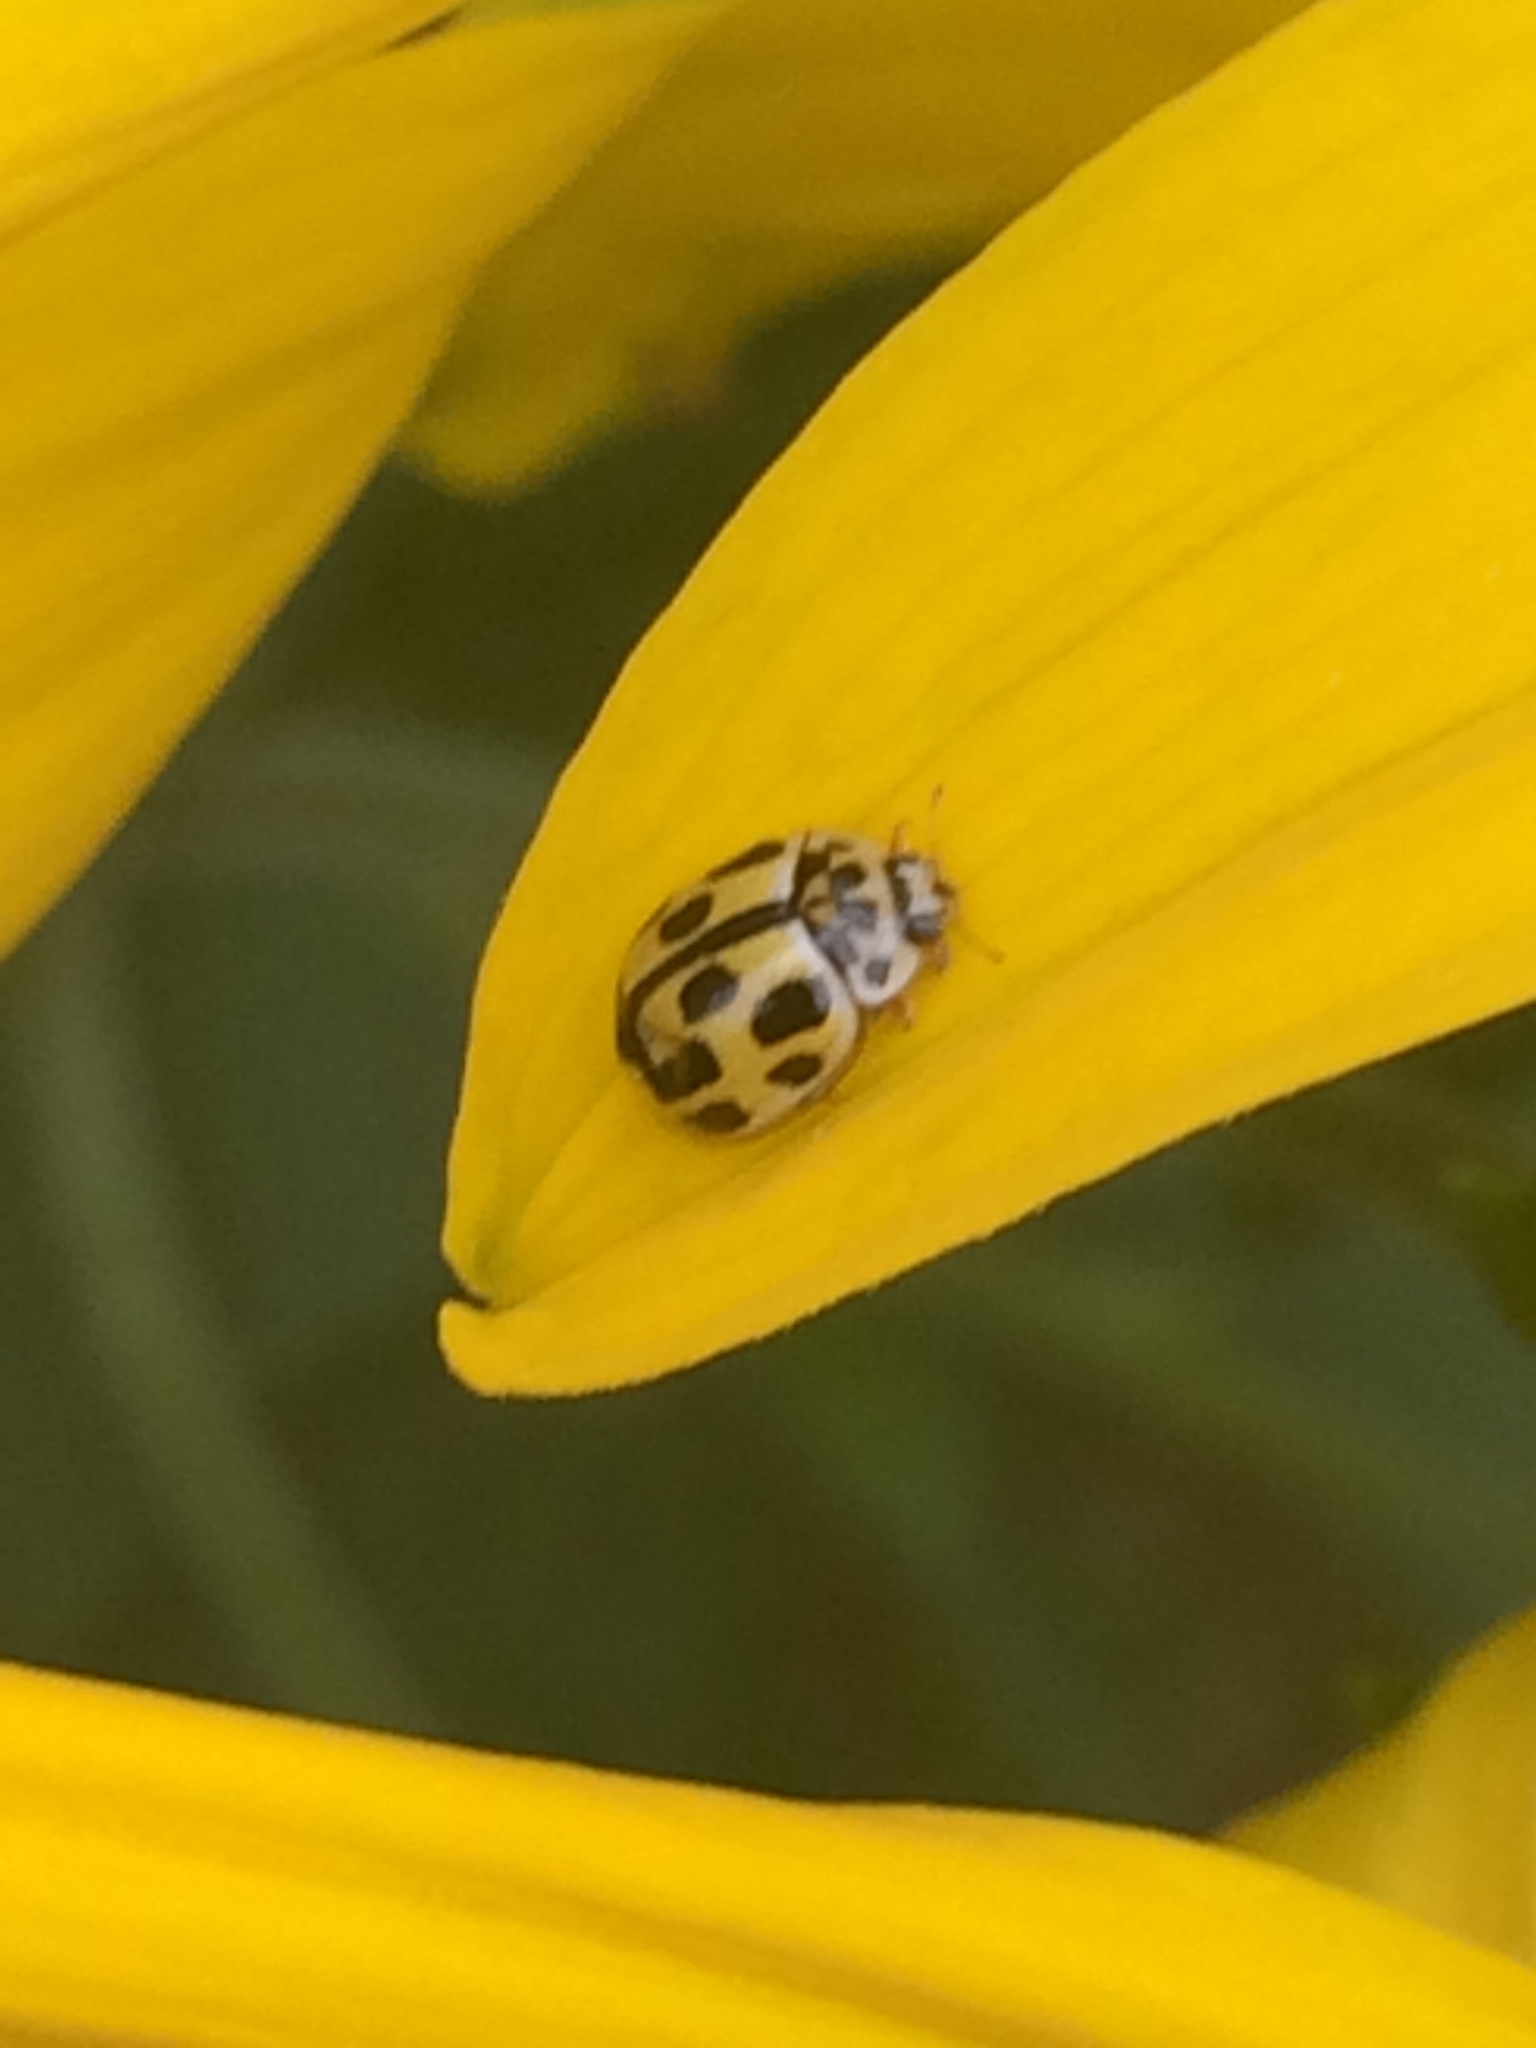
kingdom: Animalia
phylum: Arthropoda
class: Insecta
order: Coleoptera
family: Coccinellidae
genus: Propylaea
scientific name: Propylaea quatuordecimpunctata
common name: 14-spotted ladybird beetle
